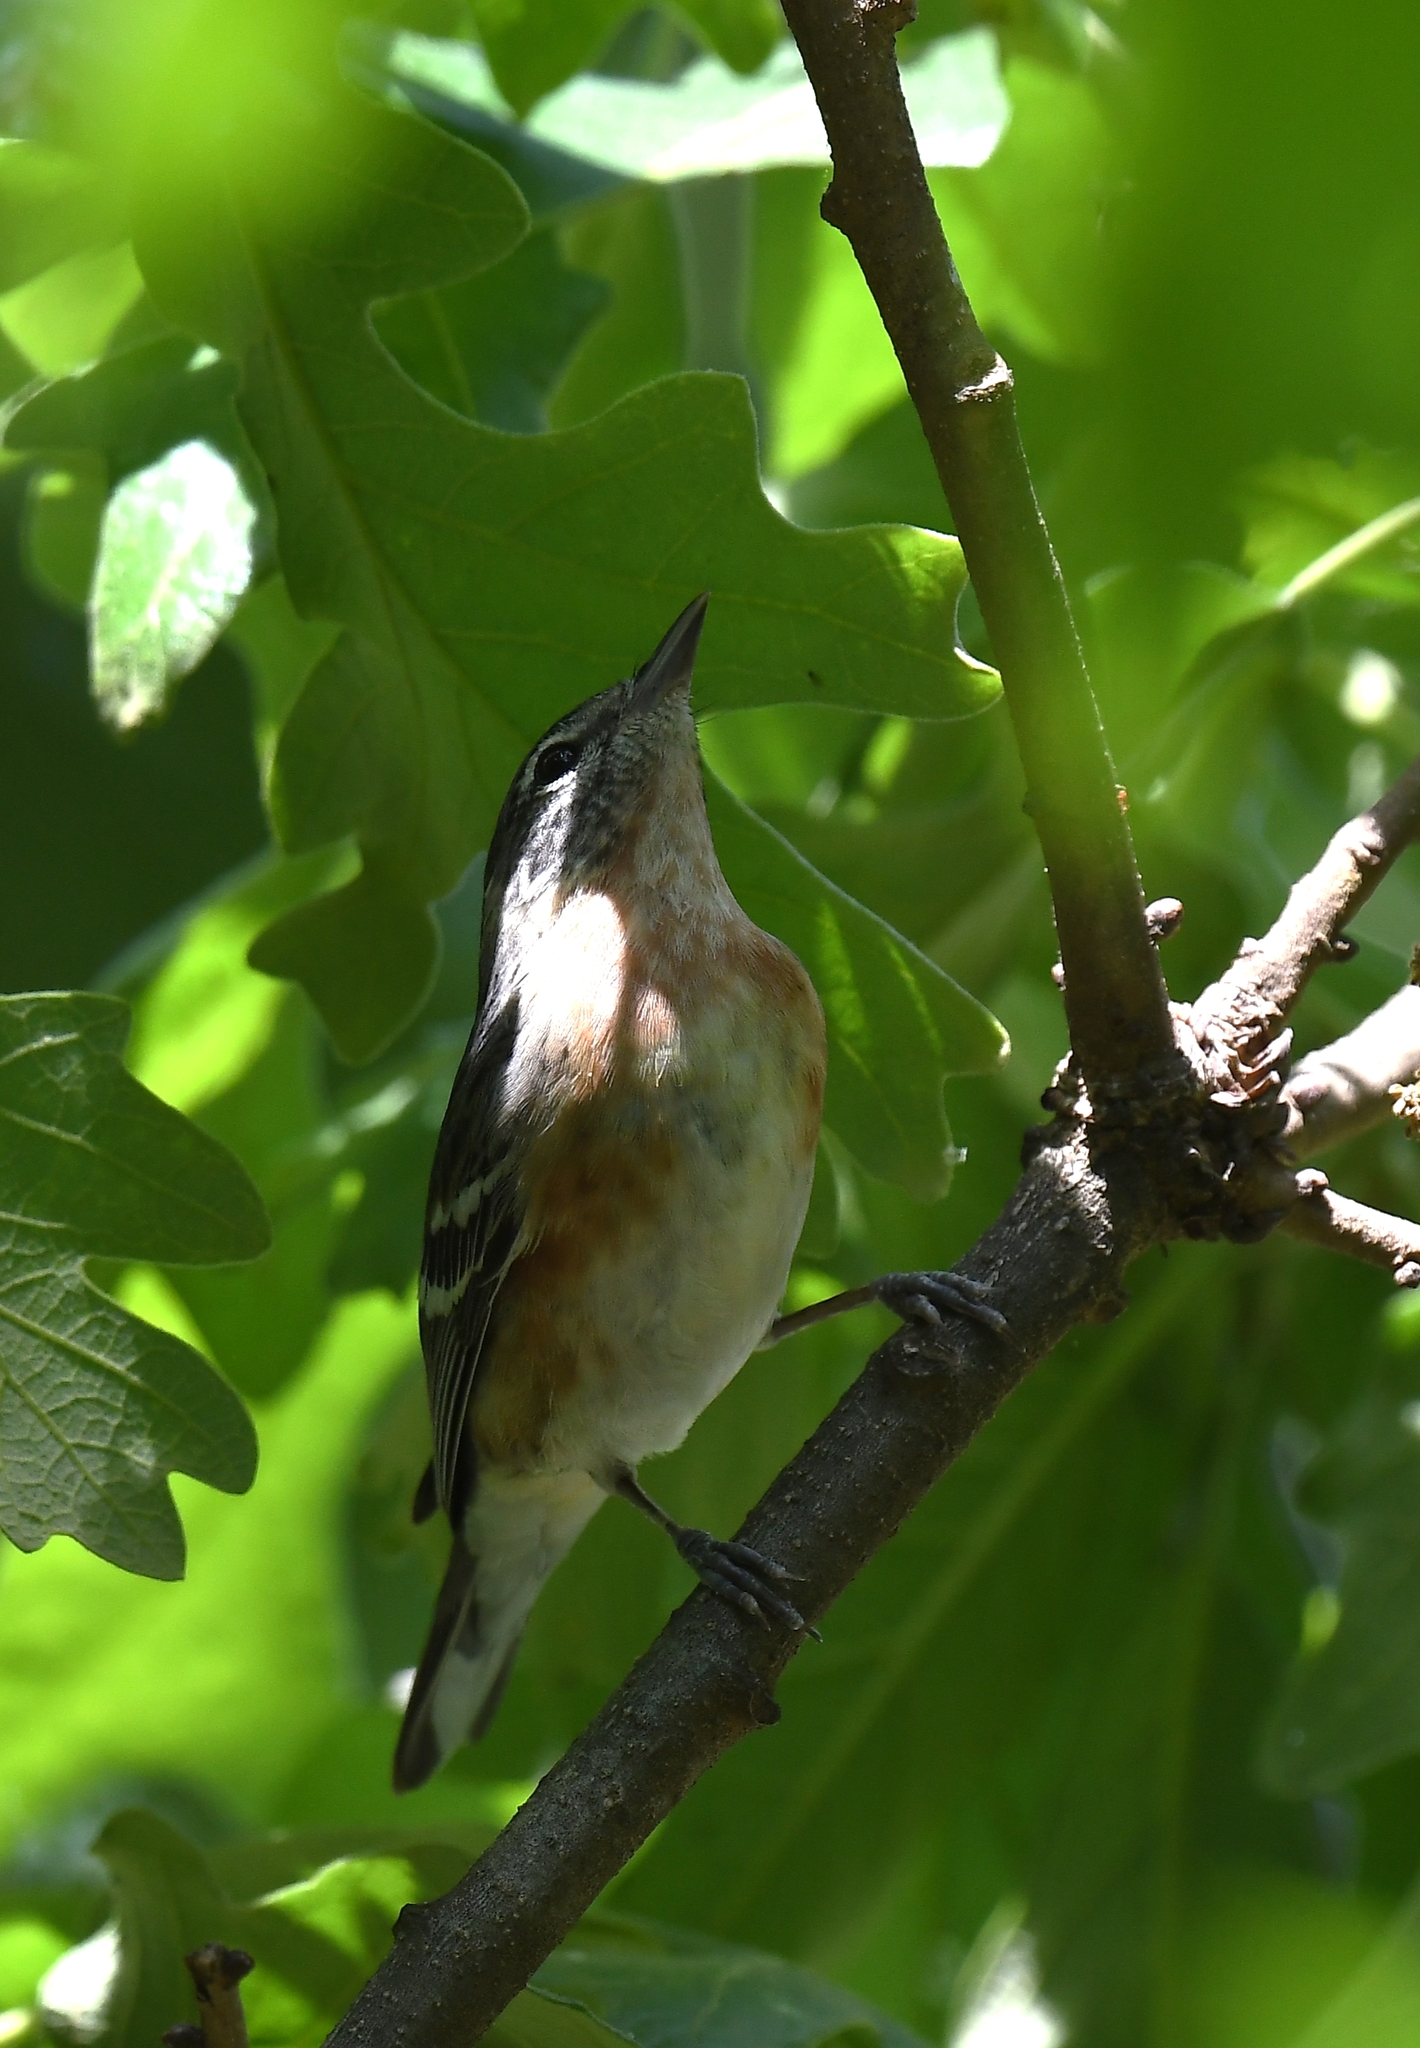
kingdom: Animalia
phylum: Chordata
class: Aves
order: Passeriformes
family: Parulidae
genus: Setophaga
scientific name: Setophaga castanea
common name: Bay-breasted warbler
